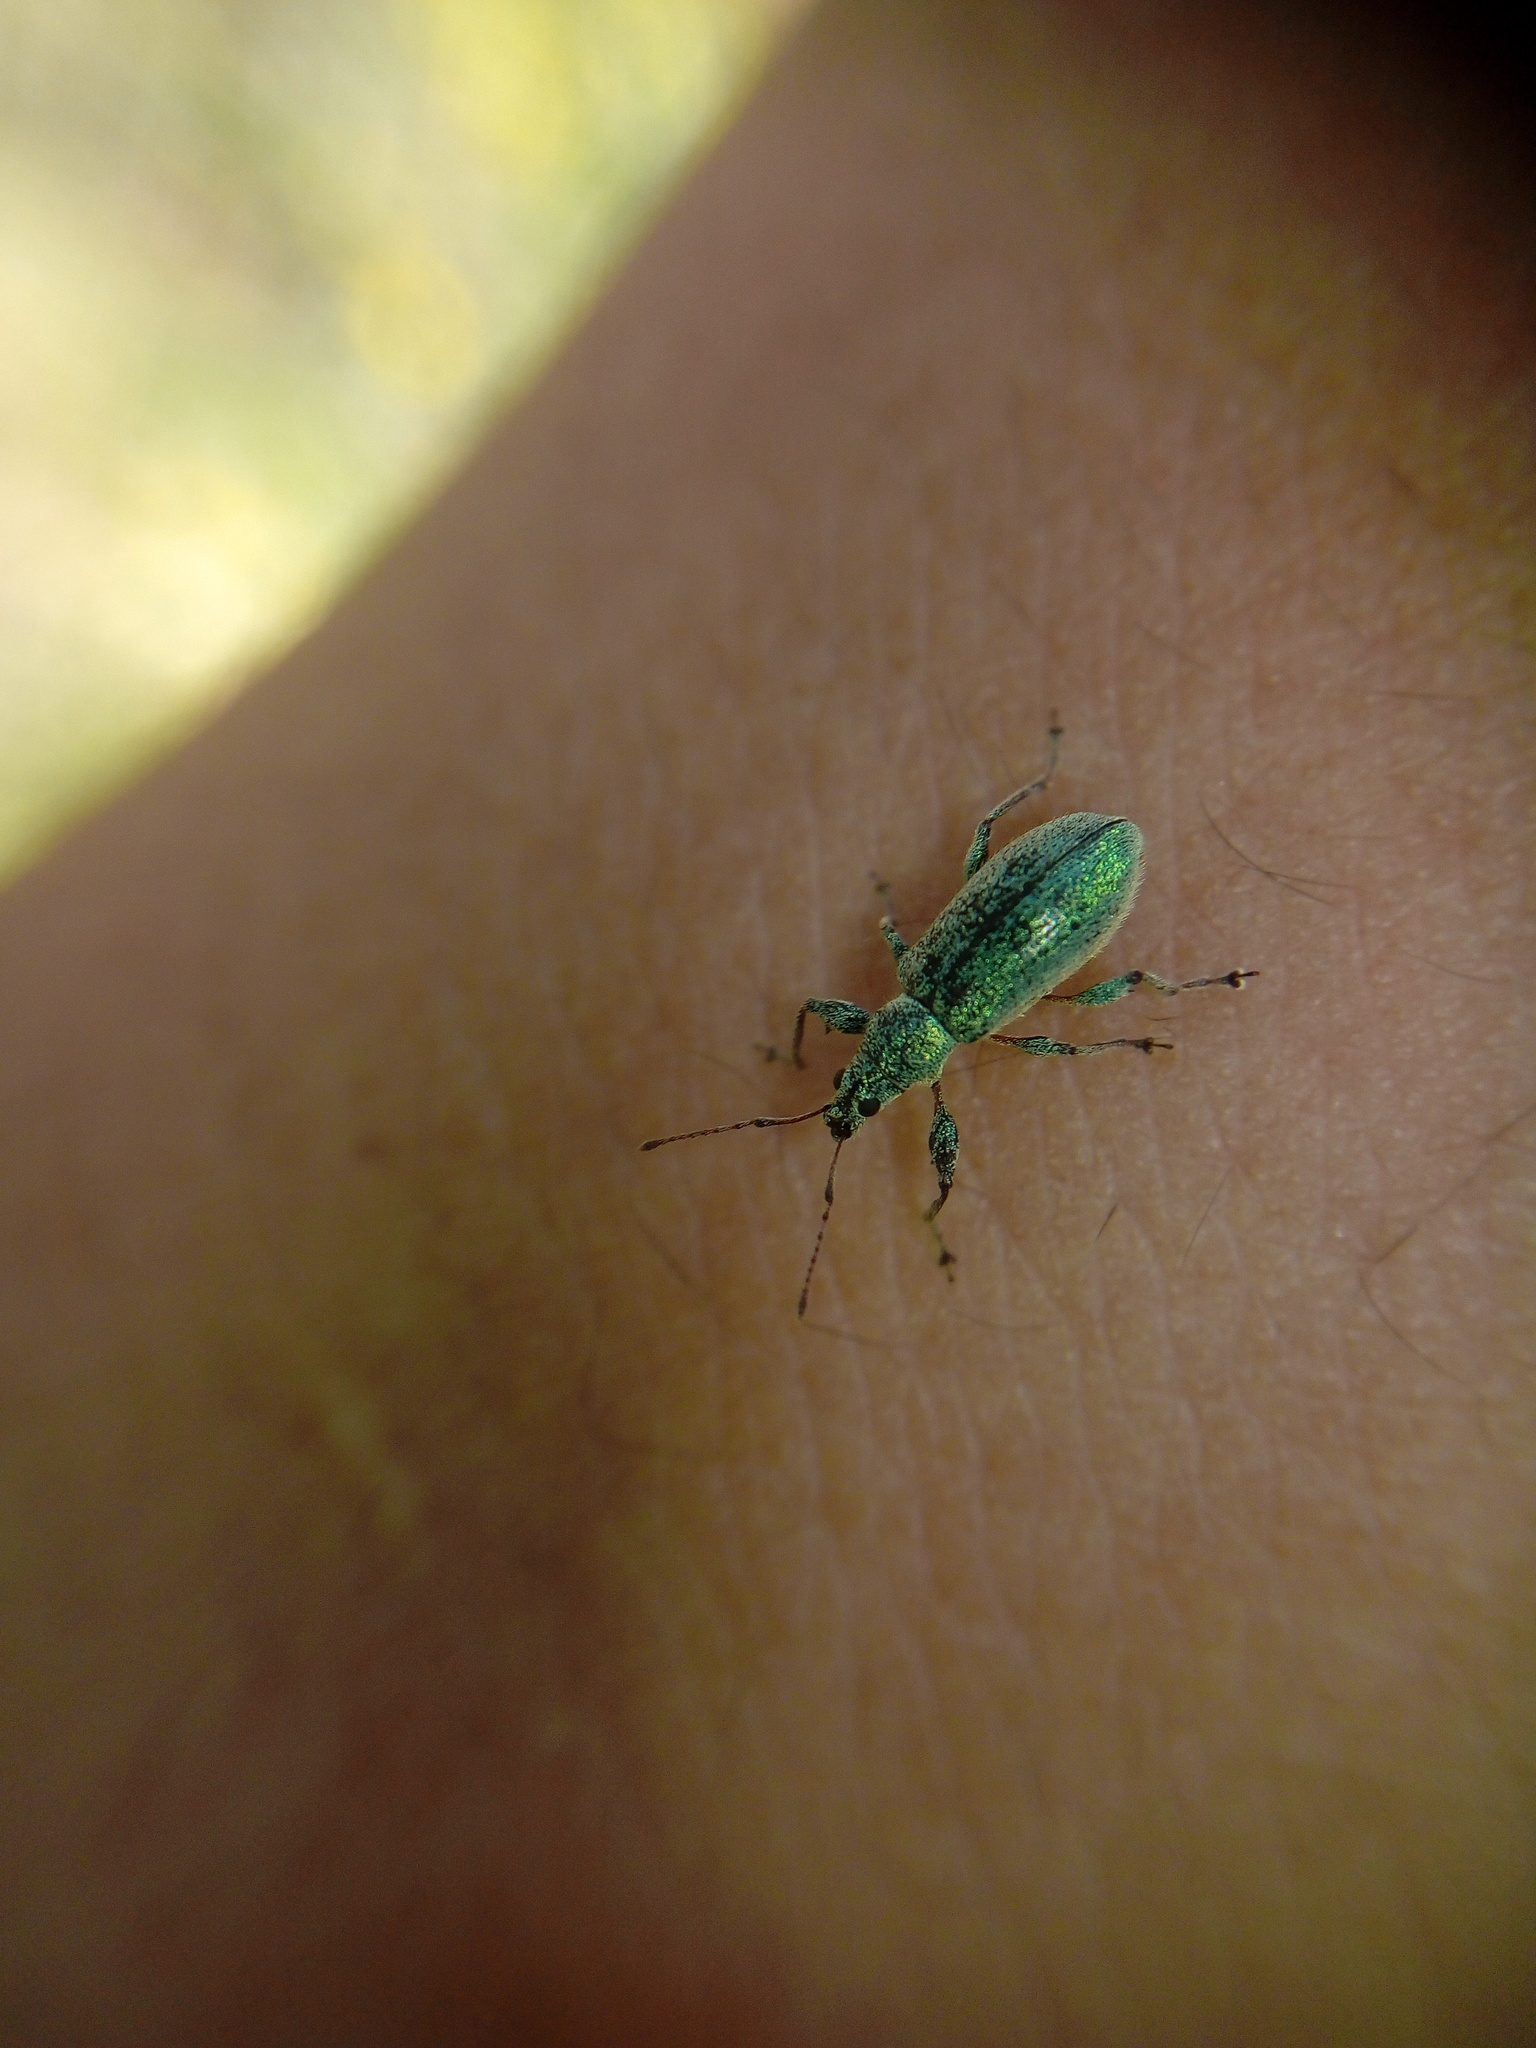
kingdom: Animalia
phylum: Arthropoda
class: Insecta
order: Coleoptera
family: Curculionidae
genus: Phyllobius
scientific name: Phyllobius arborator
